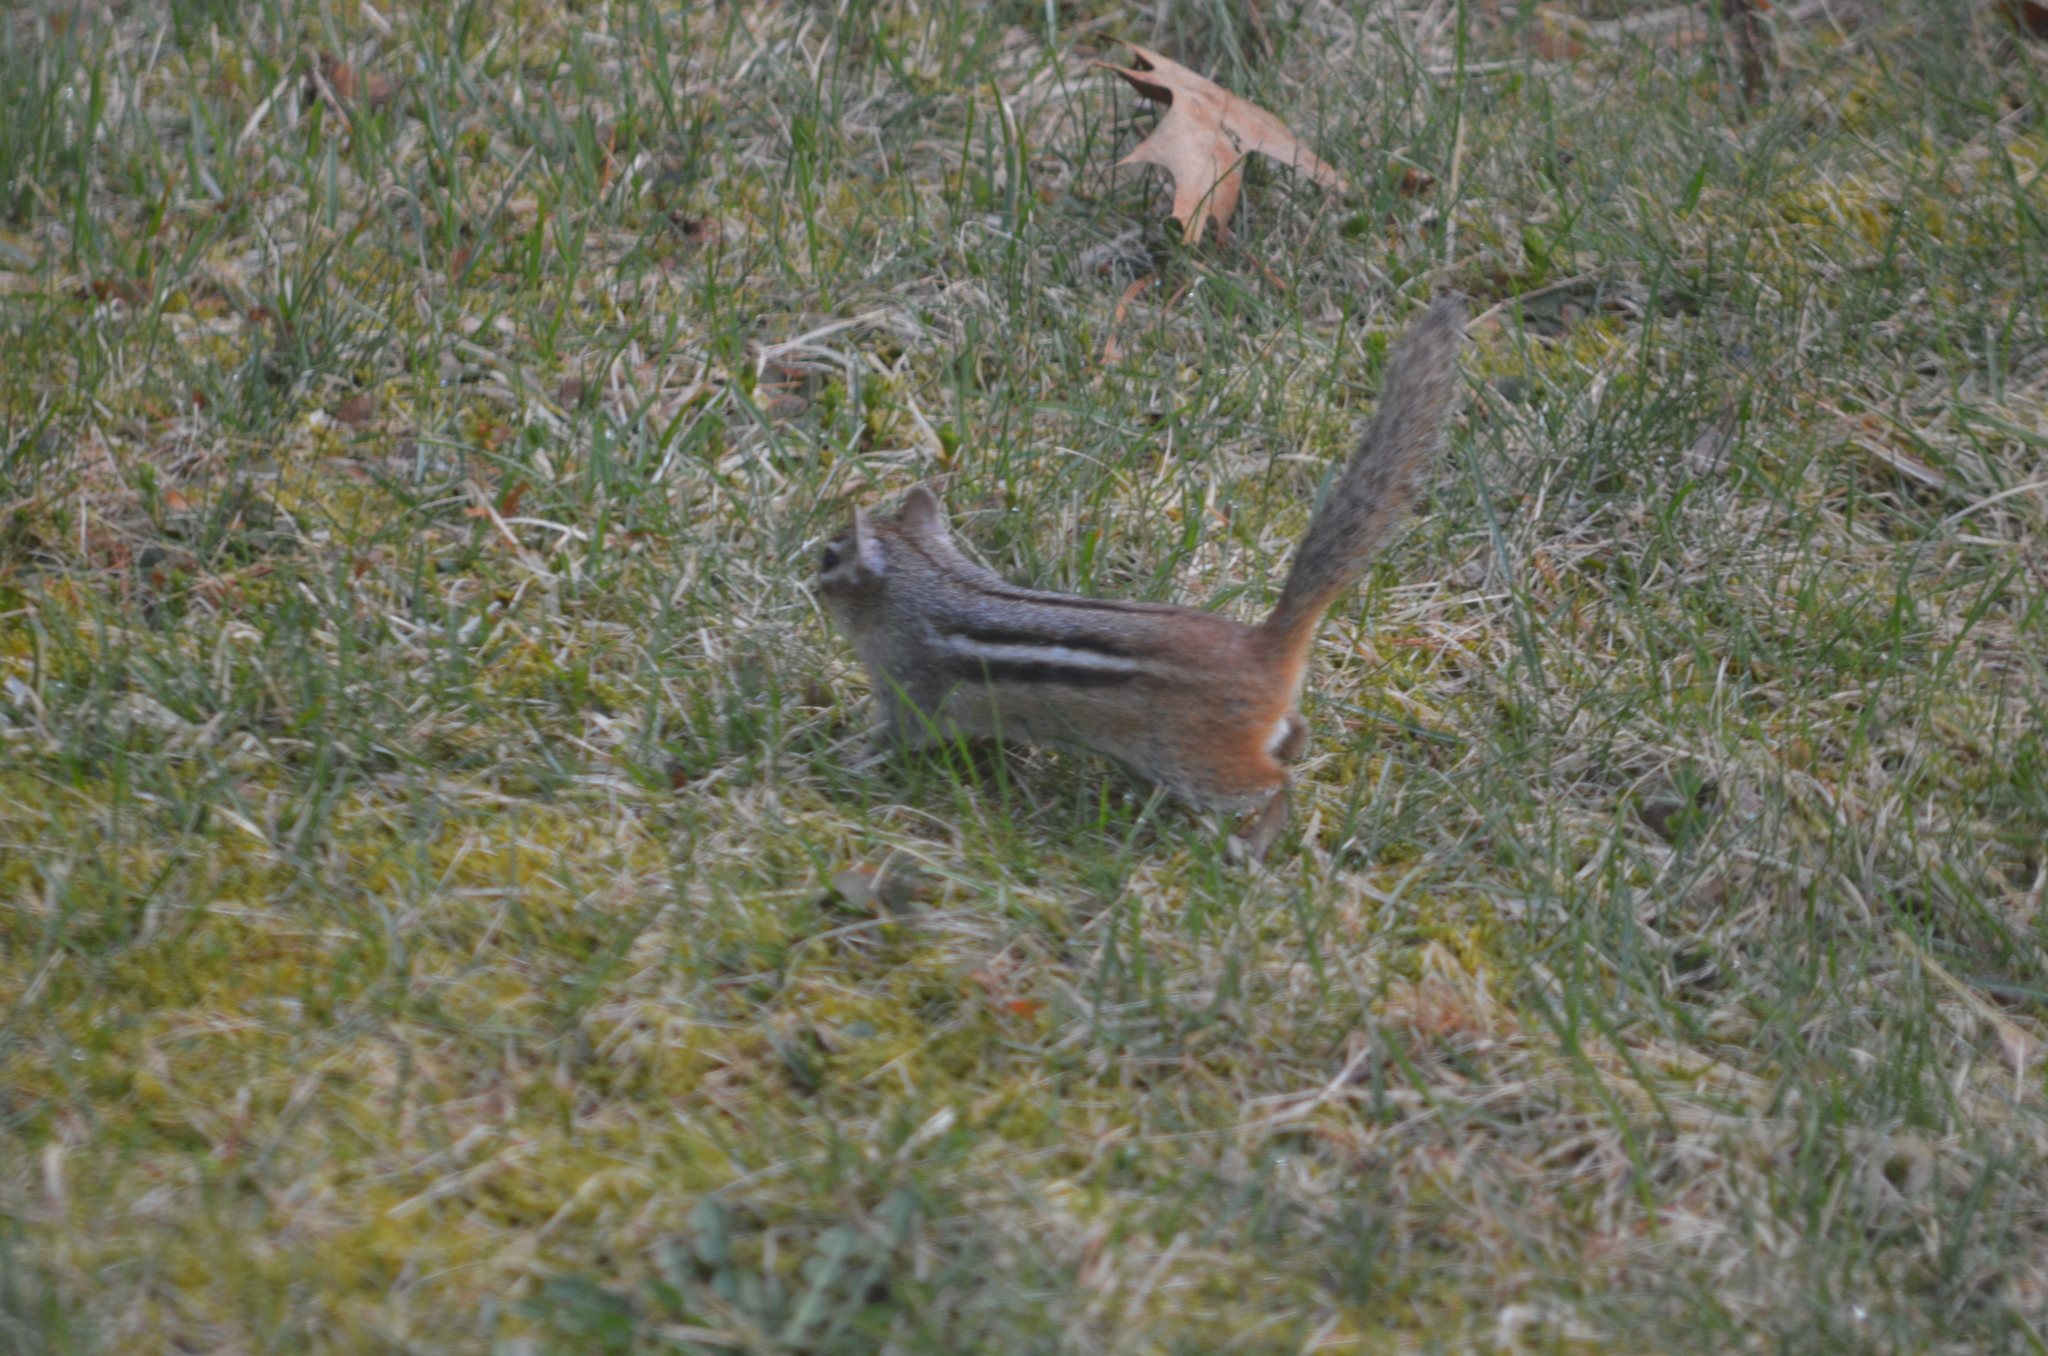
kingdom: Animalia
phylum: Chordata
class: Mammalia
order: Rodentia
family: Sciuridae
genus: Tamias
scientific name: Tamias striatus
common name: Eastern chipmunk
